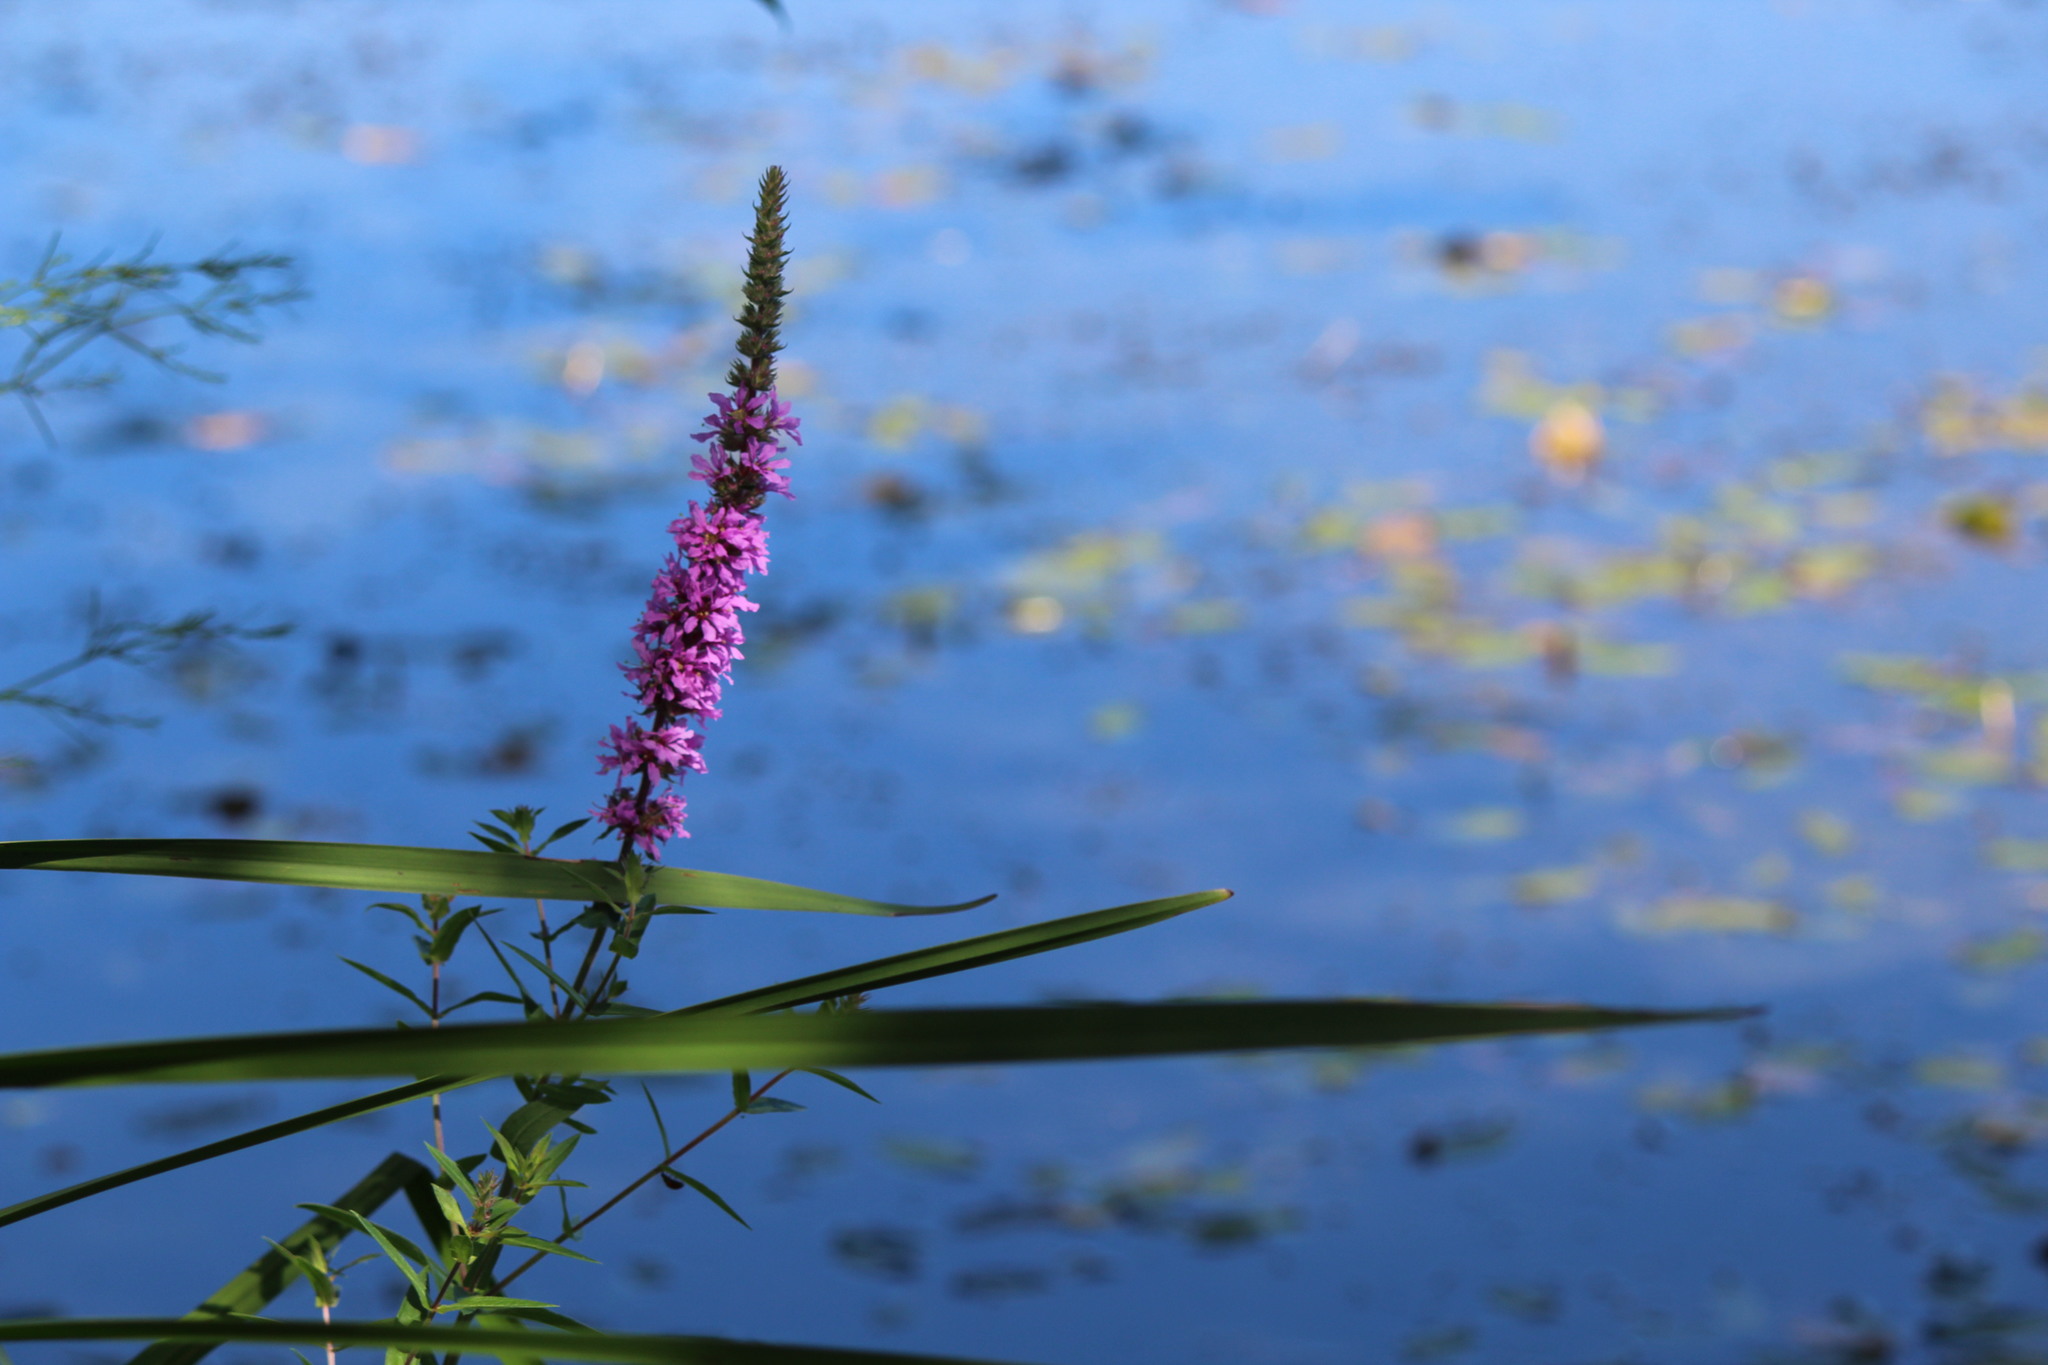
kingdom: Plantae
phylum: Tracheophyta
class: Magnoliopsida
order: Myrtales
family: Lythraceae
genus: Lythrum
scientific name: Lythrum salicaria
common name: Purple loosestrife
